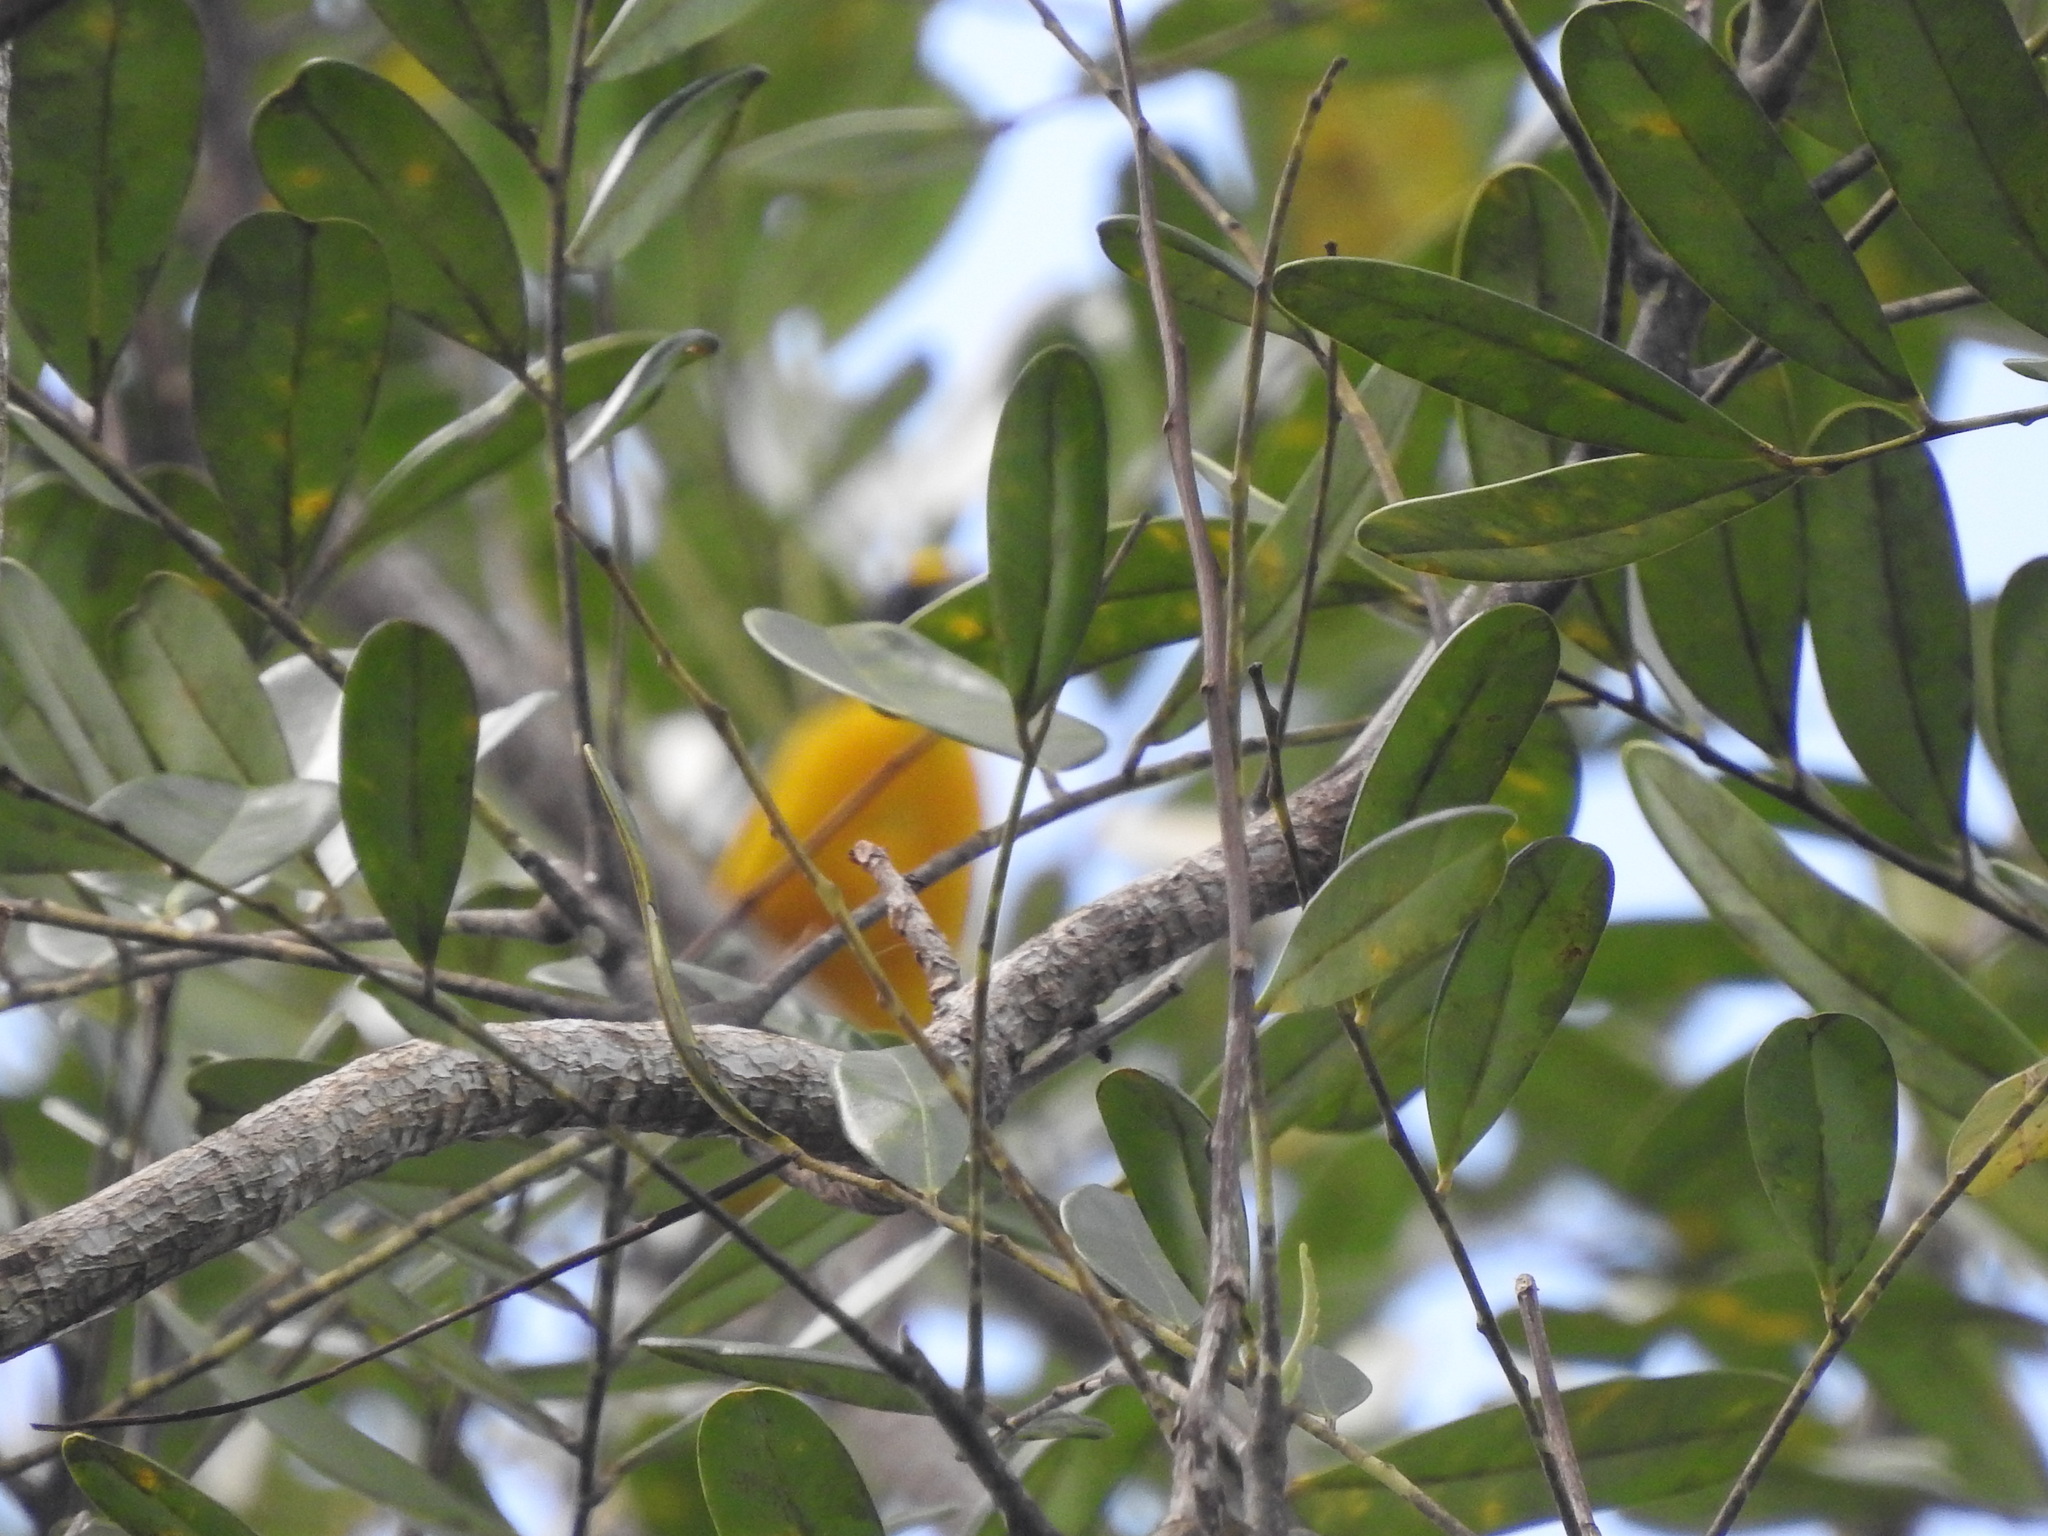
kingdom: Animalia
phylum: Chordata
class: Aves
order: Passeriformes
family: Fringillidae
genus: Euphonia
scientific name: Euphonia hirundinacea
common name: Yellow-throated euphonia
